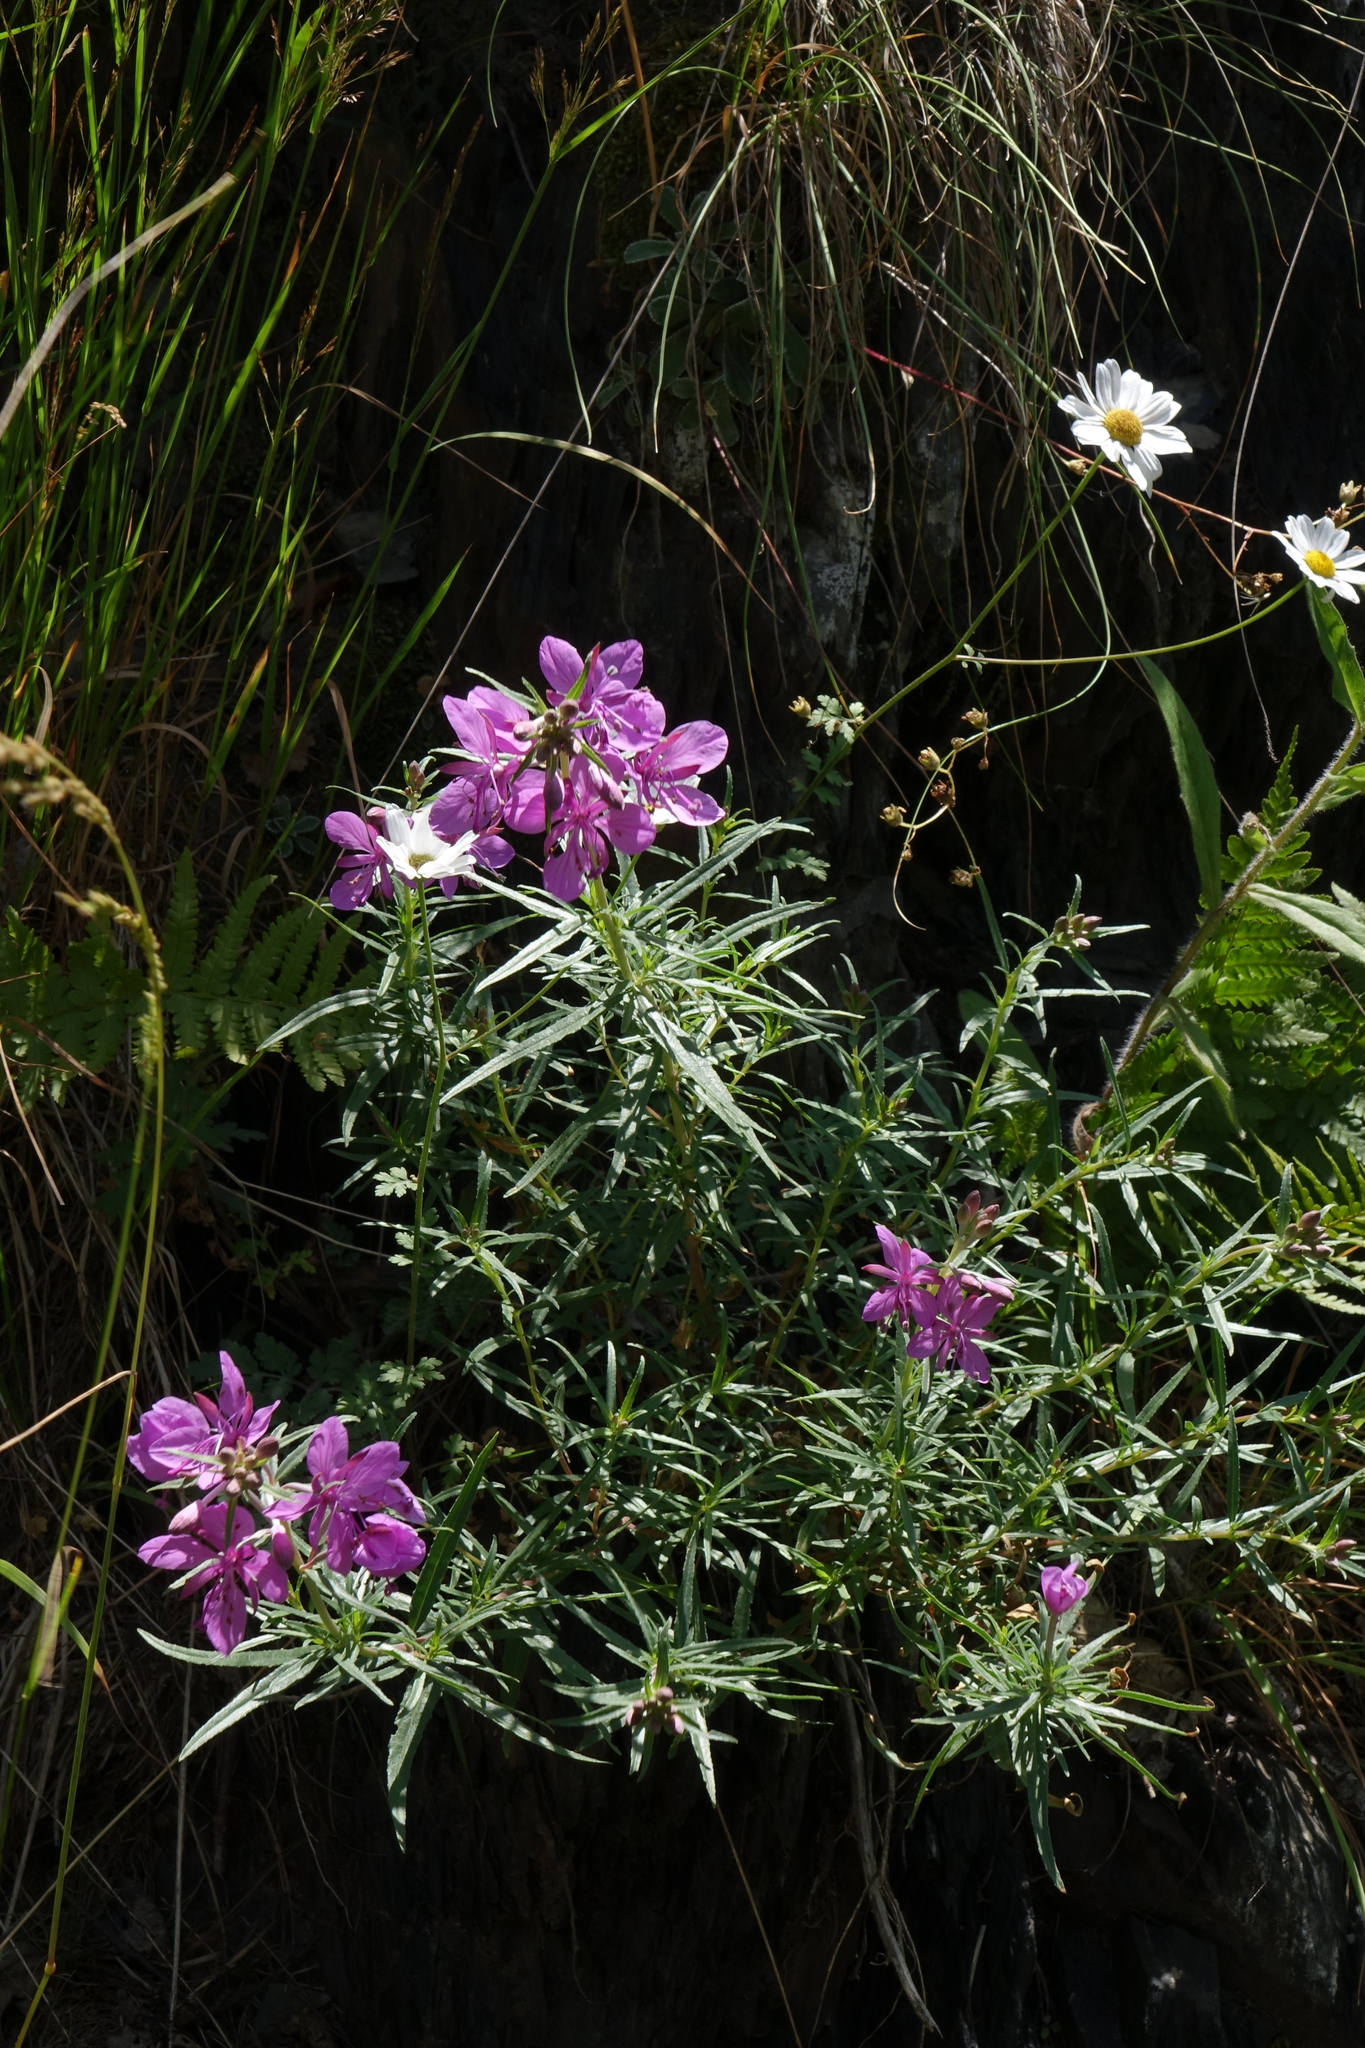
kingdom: Plantae
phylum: Tracheophyta
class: Magnoliopsida
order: Myrtales
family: Onagraceae
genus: Chamaenerion
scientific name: Chamaenerion colchicum
